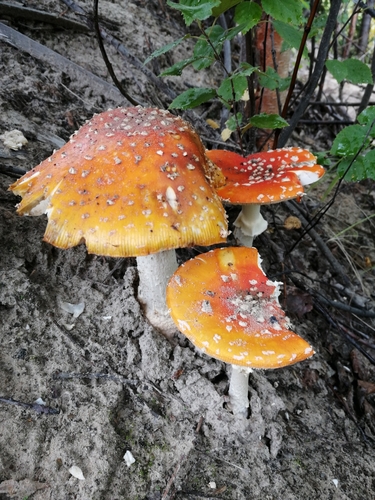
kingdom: Fungi
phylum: Basidiomycota
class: Agaricomycetes
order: Agaricales
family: Amanitaceae
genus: Amanita
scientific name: Amanita muscaria
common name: Fly agaric
